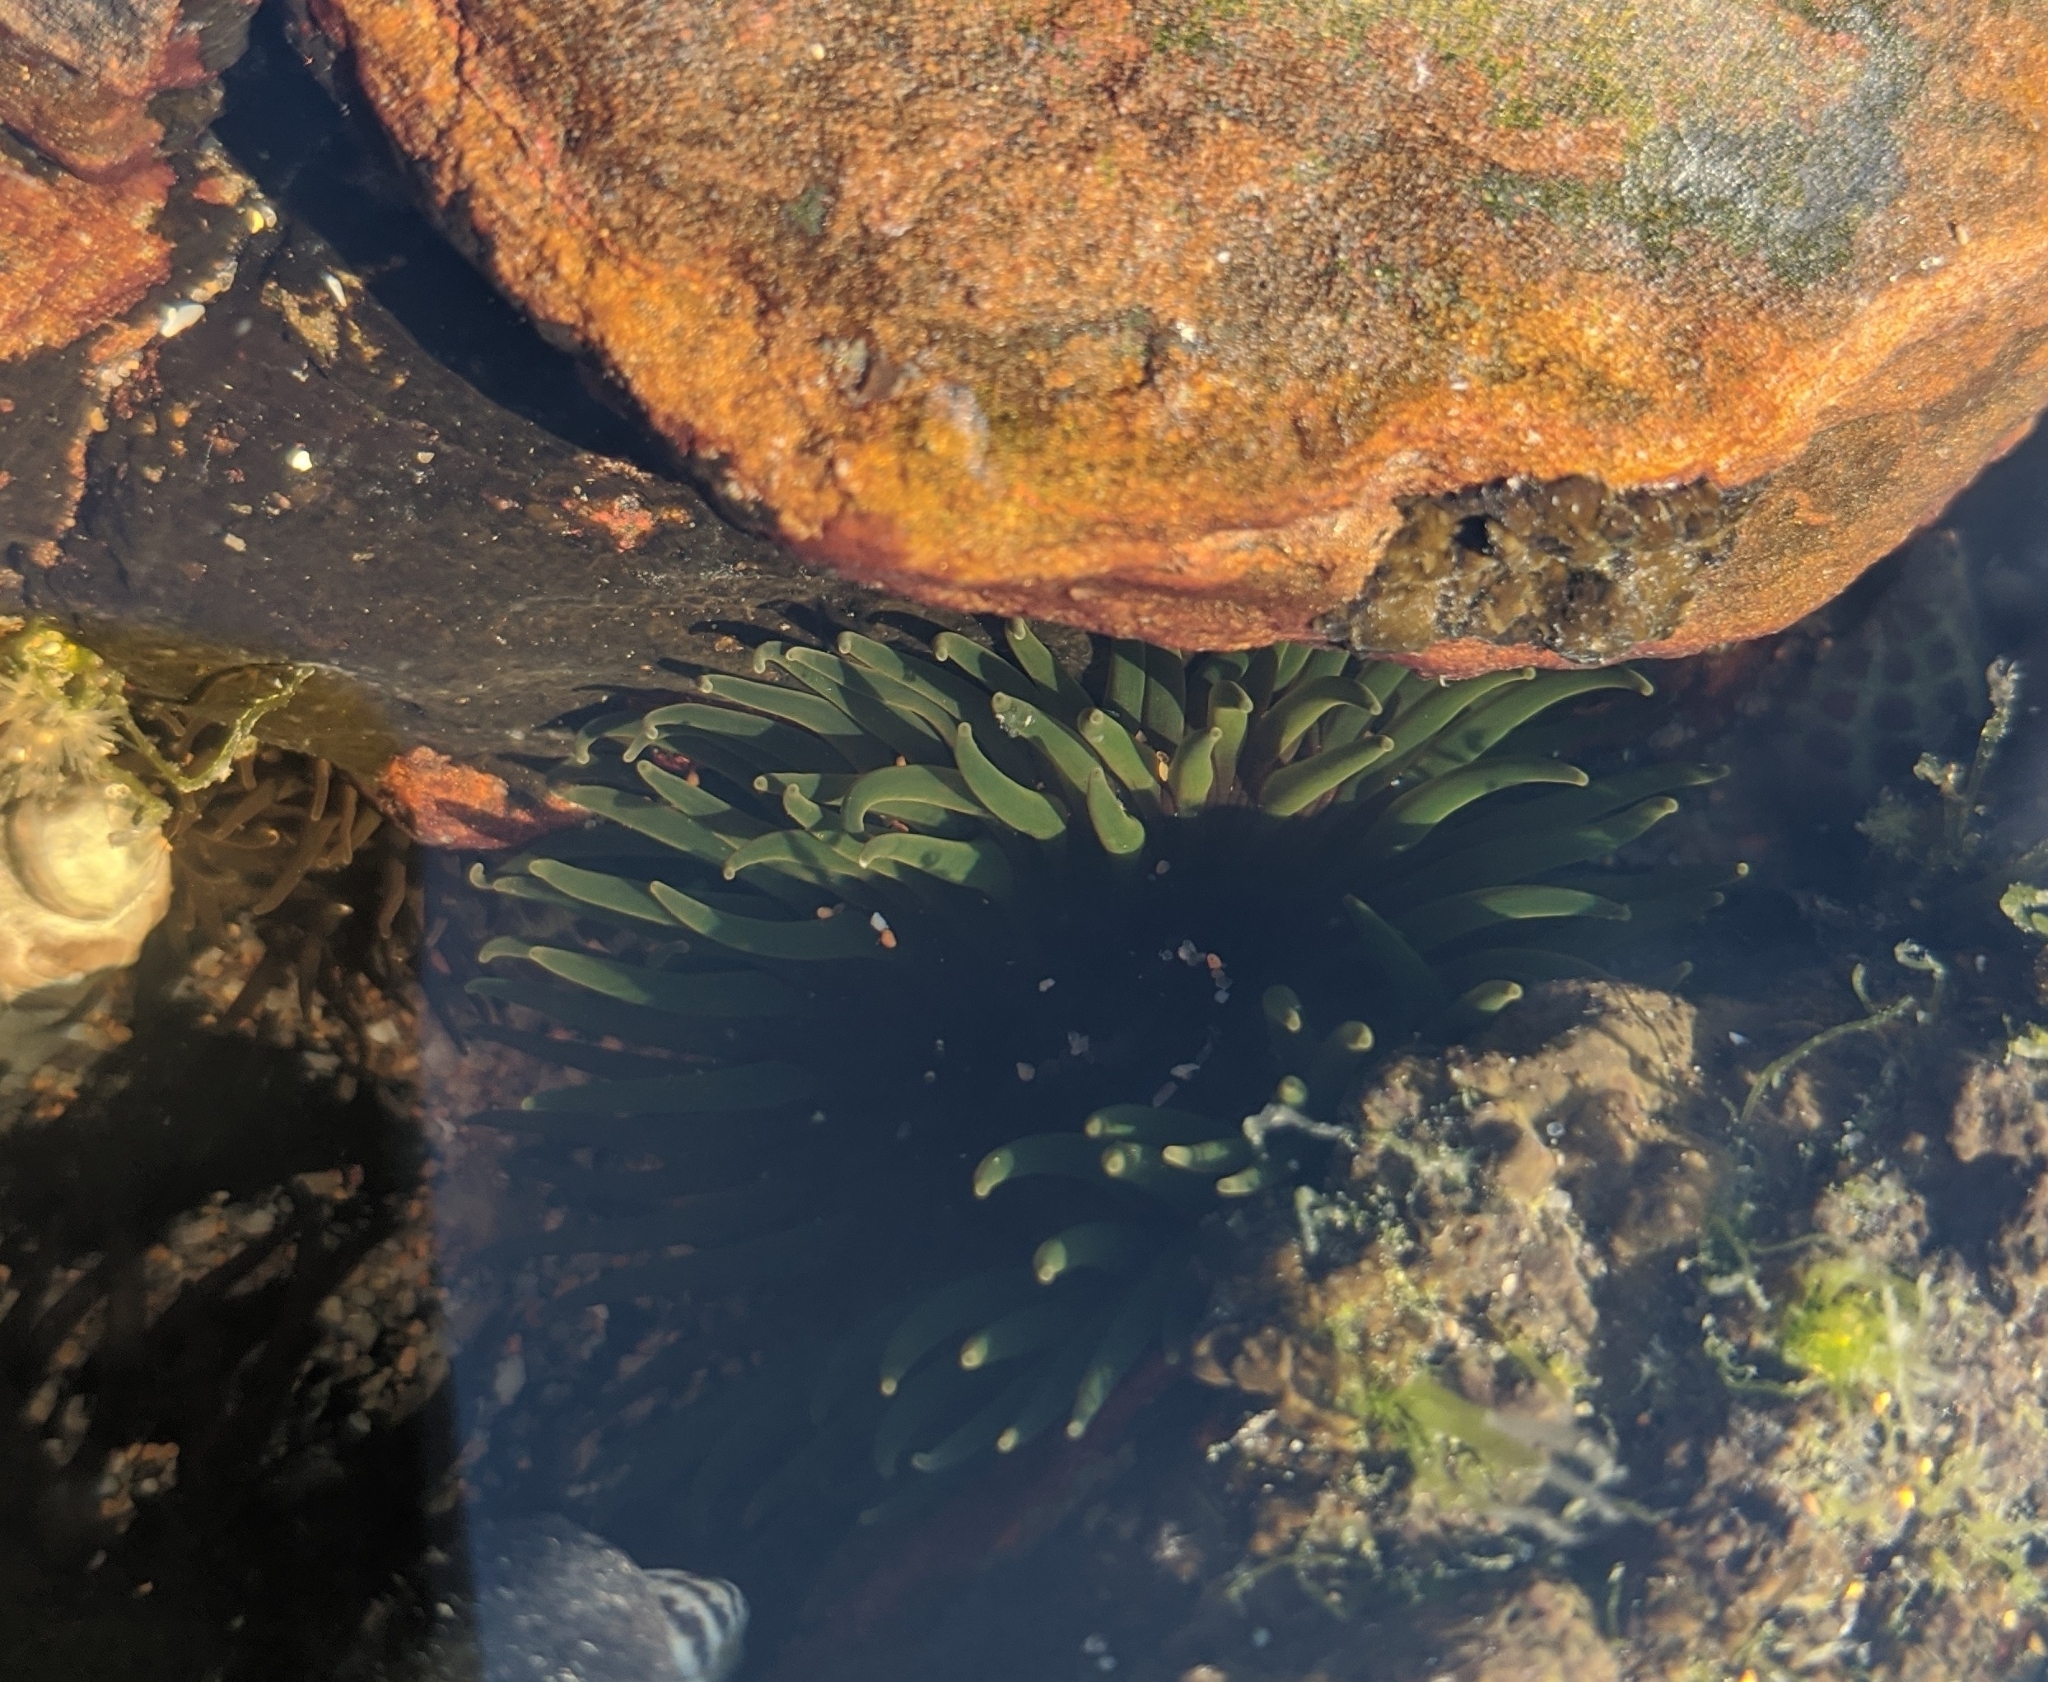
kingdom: Animalia
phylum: Cnidaria
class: Anthozoa
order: Actiniaria
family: Actiniidae
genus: Aulactinia
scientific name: Aulactinia veratra
